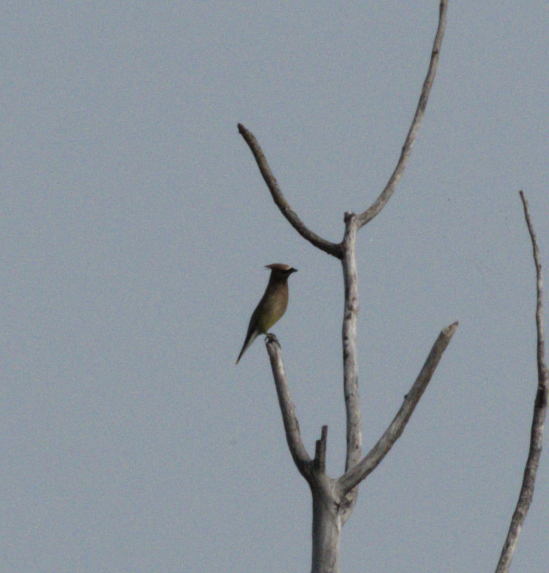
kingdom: Animalia
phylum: Chordata
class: Aves
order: Passeriformes
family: Bombycillidae
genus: Bombycilla
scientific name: Bombycilla cedrorum
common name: Cedar waxwing
